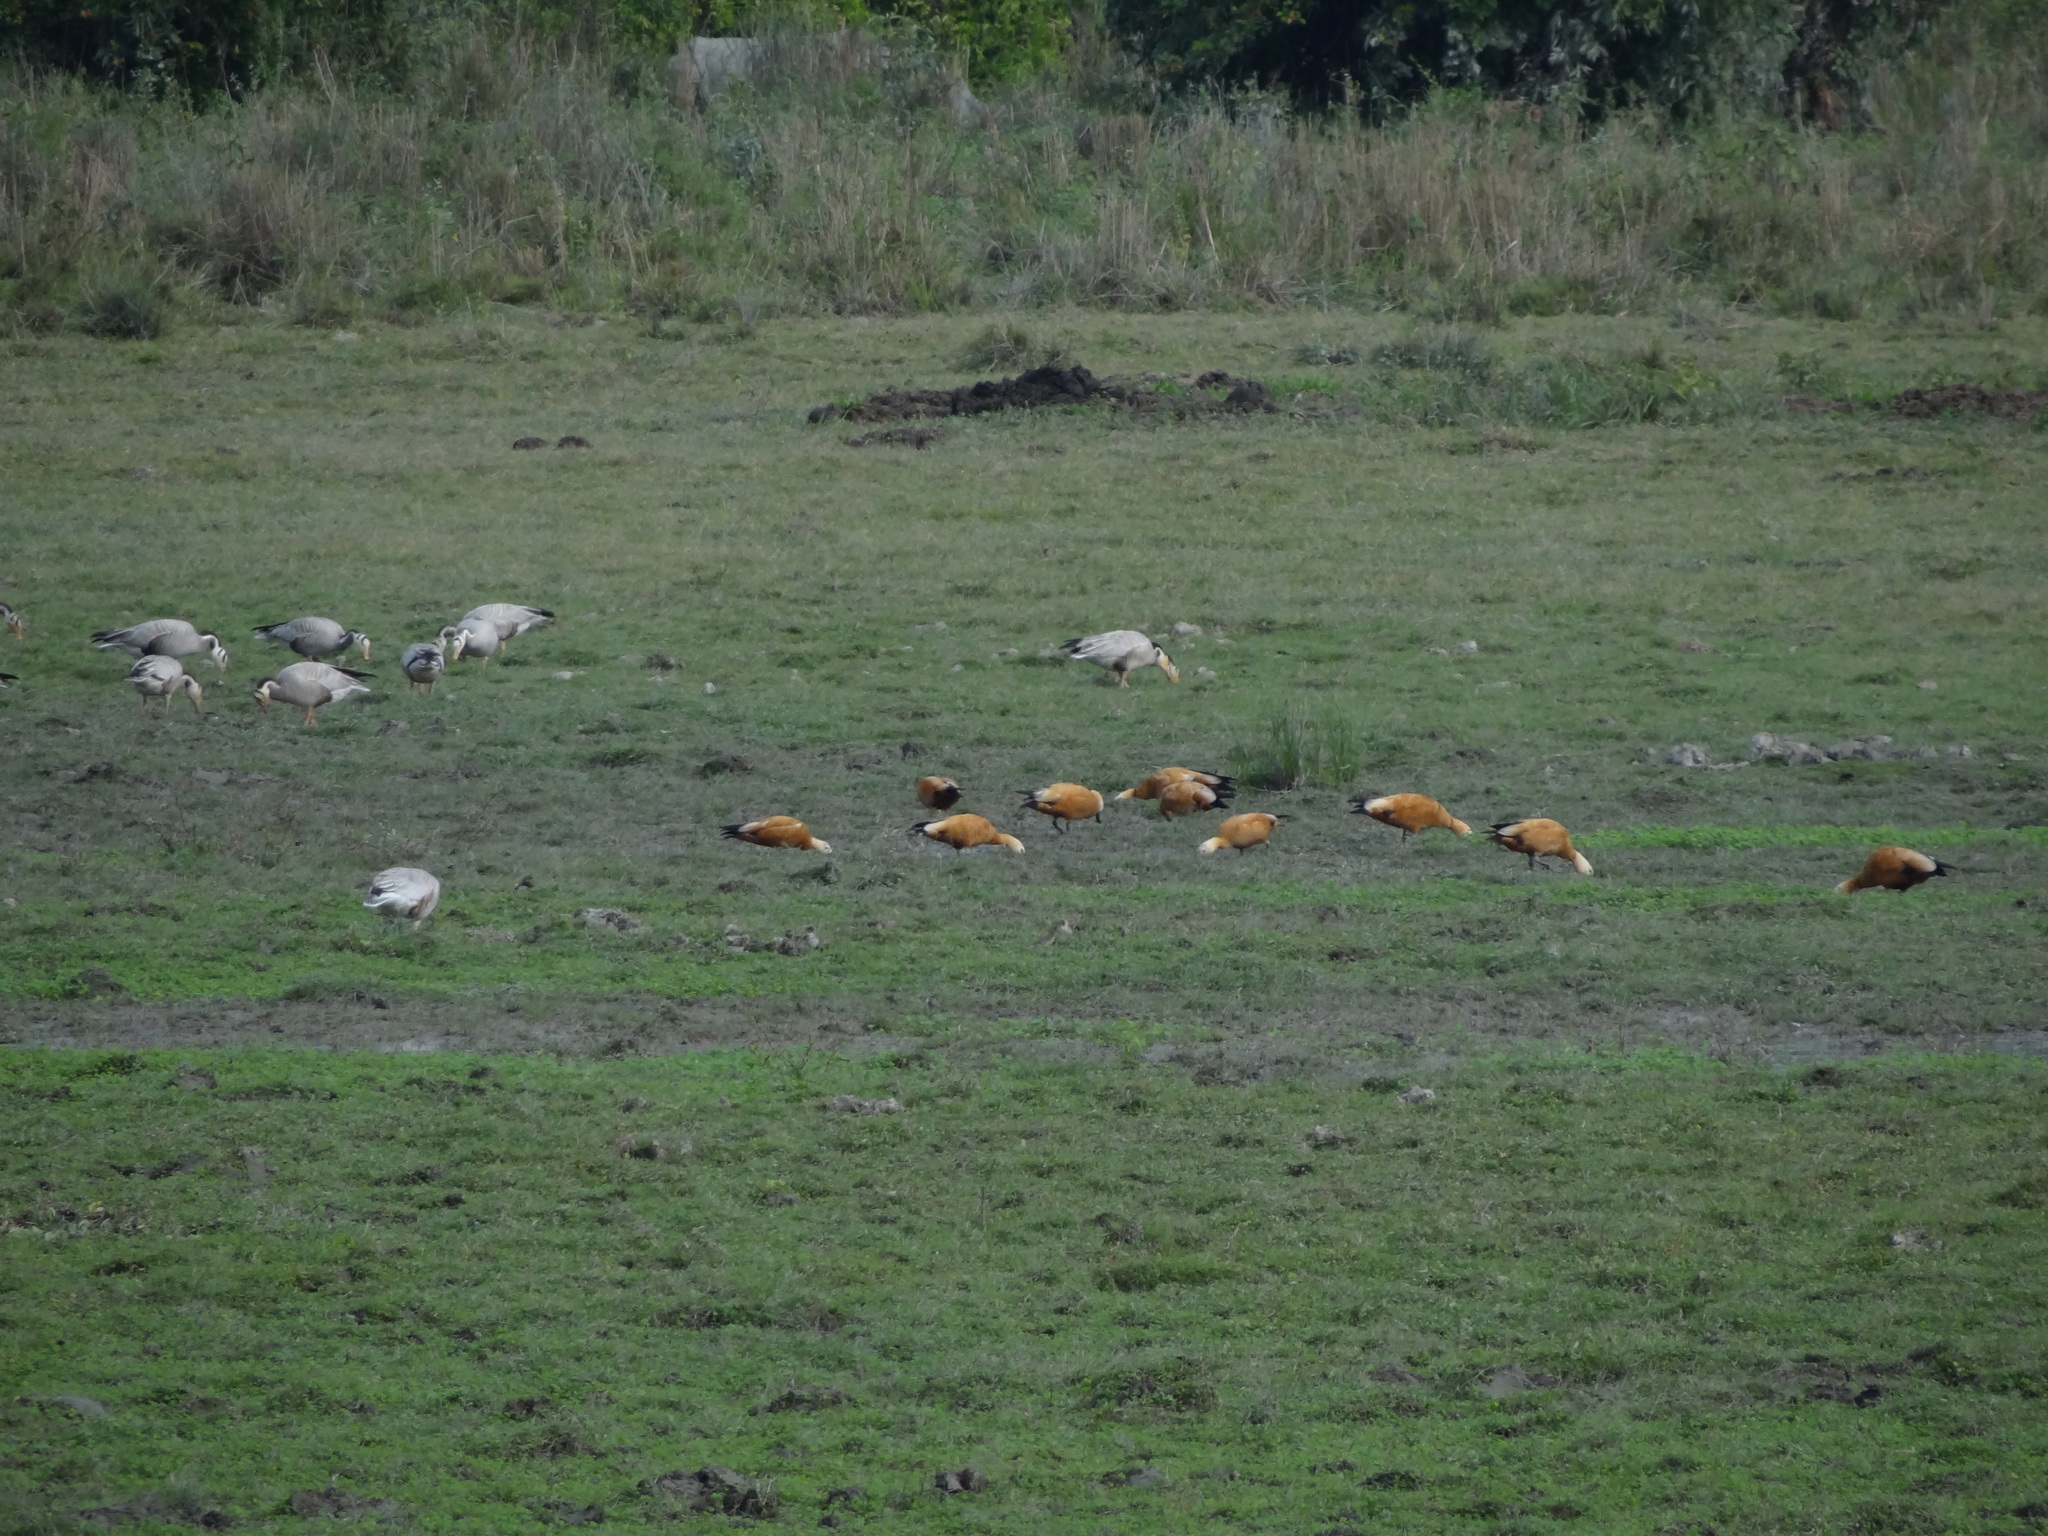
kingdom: Animalia
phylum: Chordata
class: Aves
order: Anseriformes
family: Anatidae
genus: Tadorna
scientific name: Tadorna ferruginea
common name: Ruddy shelduck
